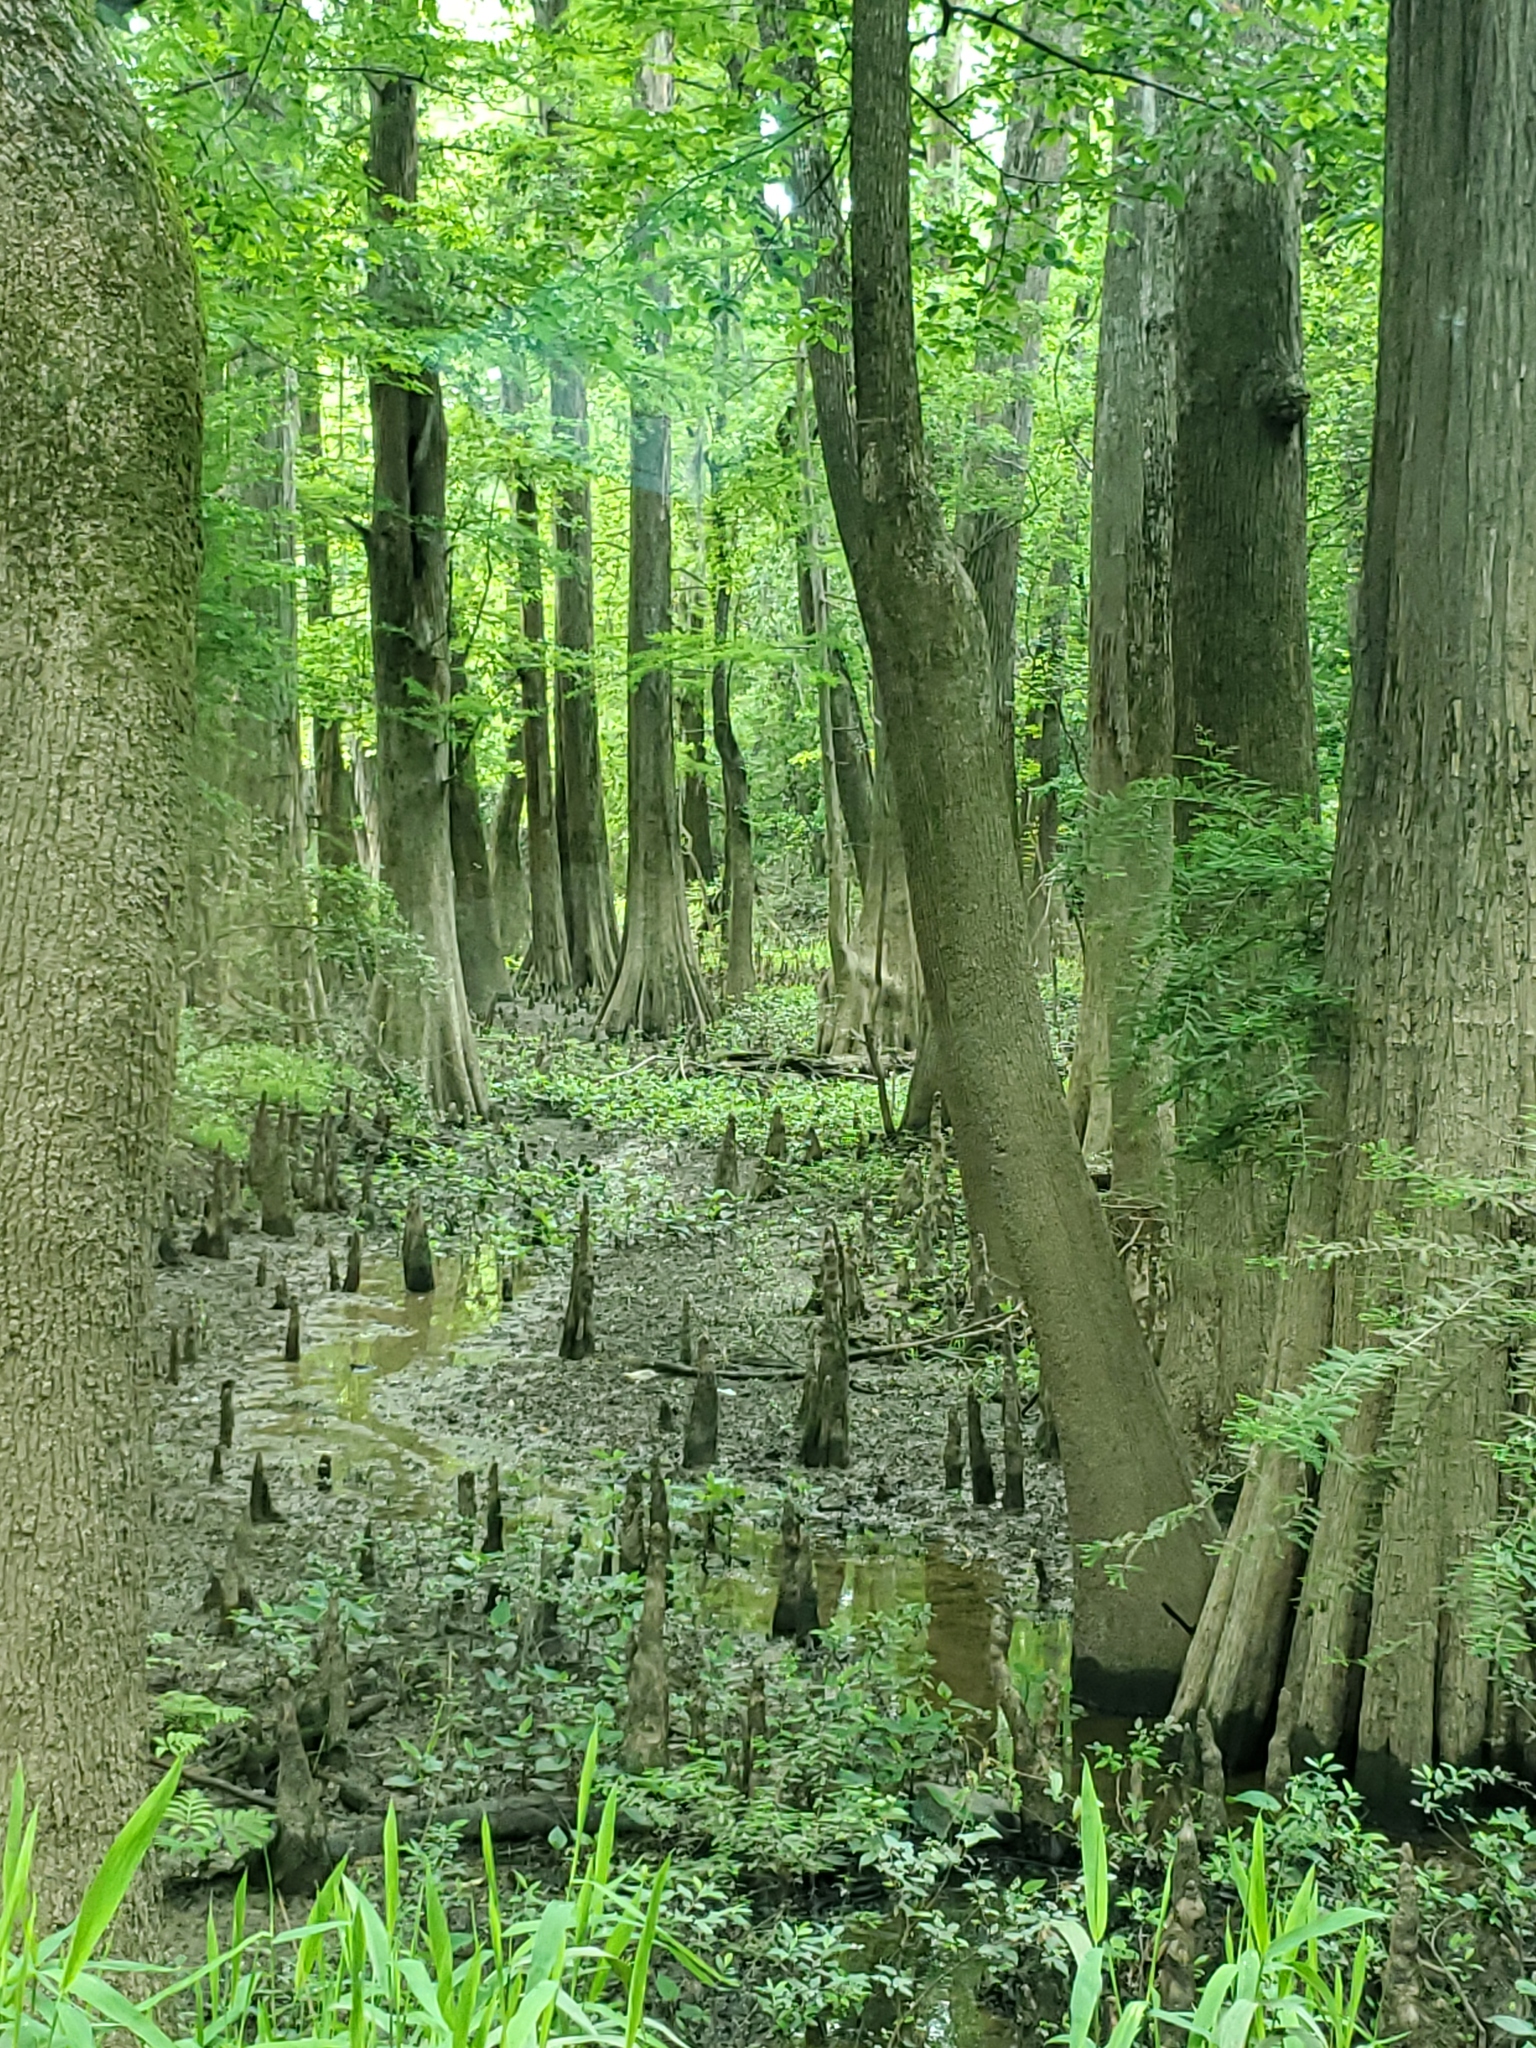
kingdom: Plantae
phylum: Tracheophyta
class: Pinopsida
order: Pinales
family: Cupressaceae
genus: Taxodium
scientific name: Taxodium distichum
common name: Bald cypress
